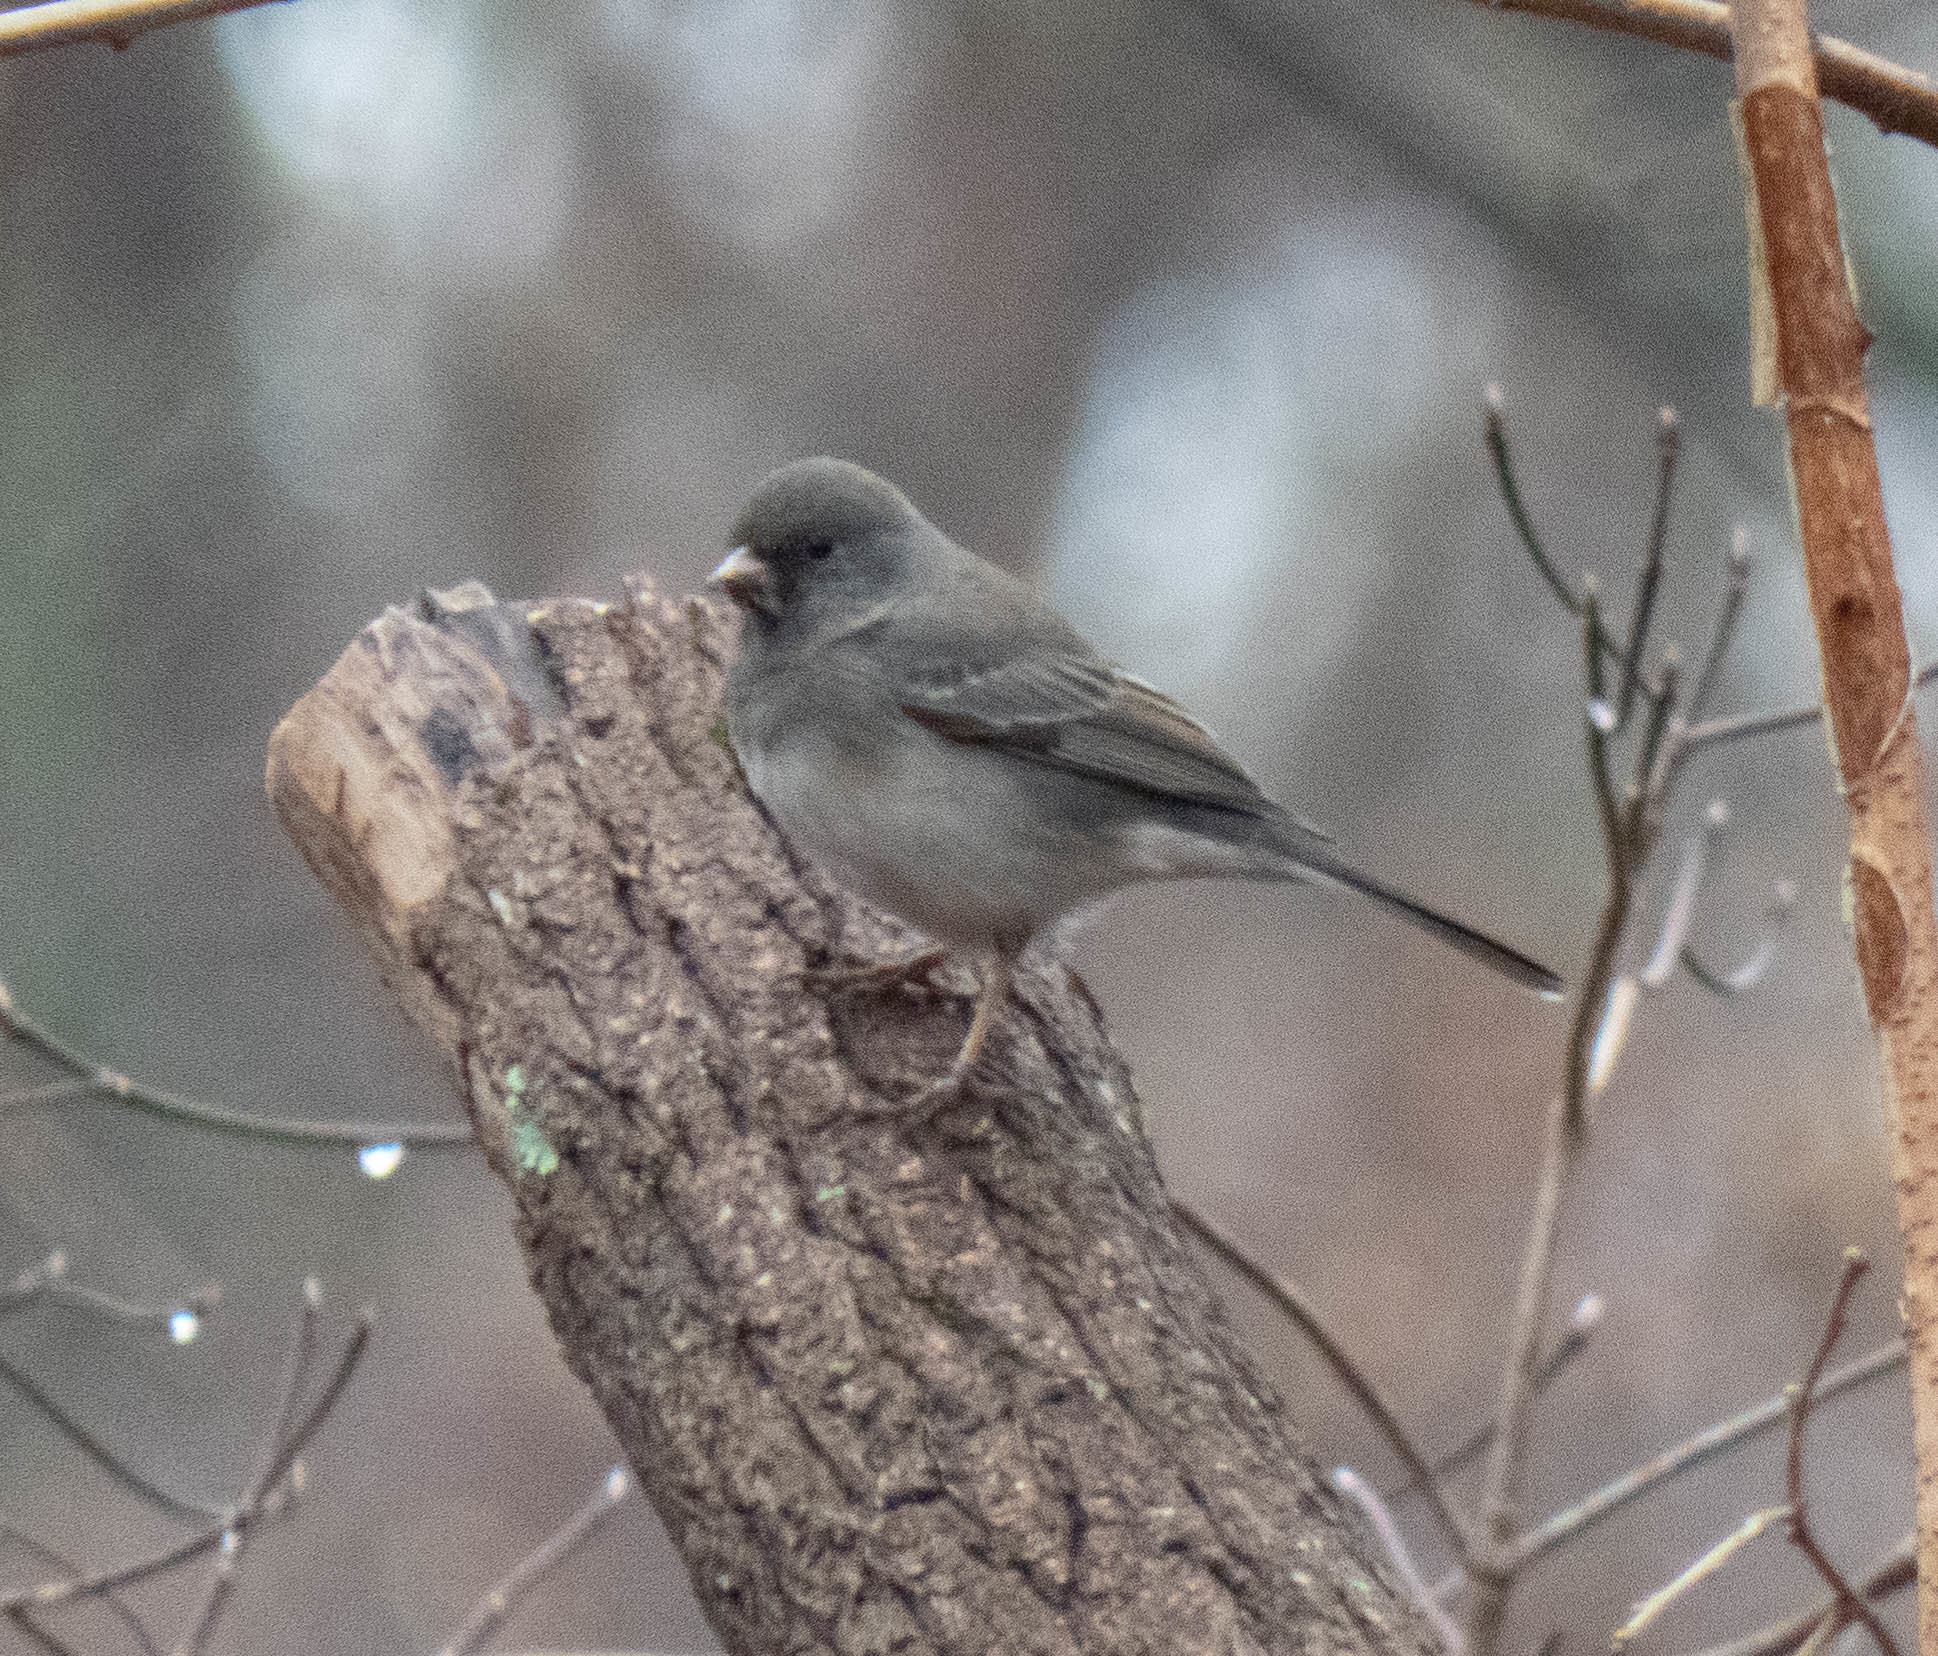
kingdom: Animalia
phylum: Chordata
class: Aves
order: Passeriformes
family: Passerellidae
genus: Junco
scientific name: Junco hyemalis
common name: Dark-eyed junco
